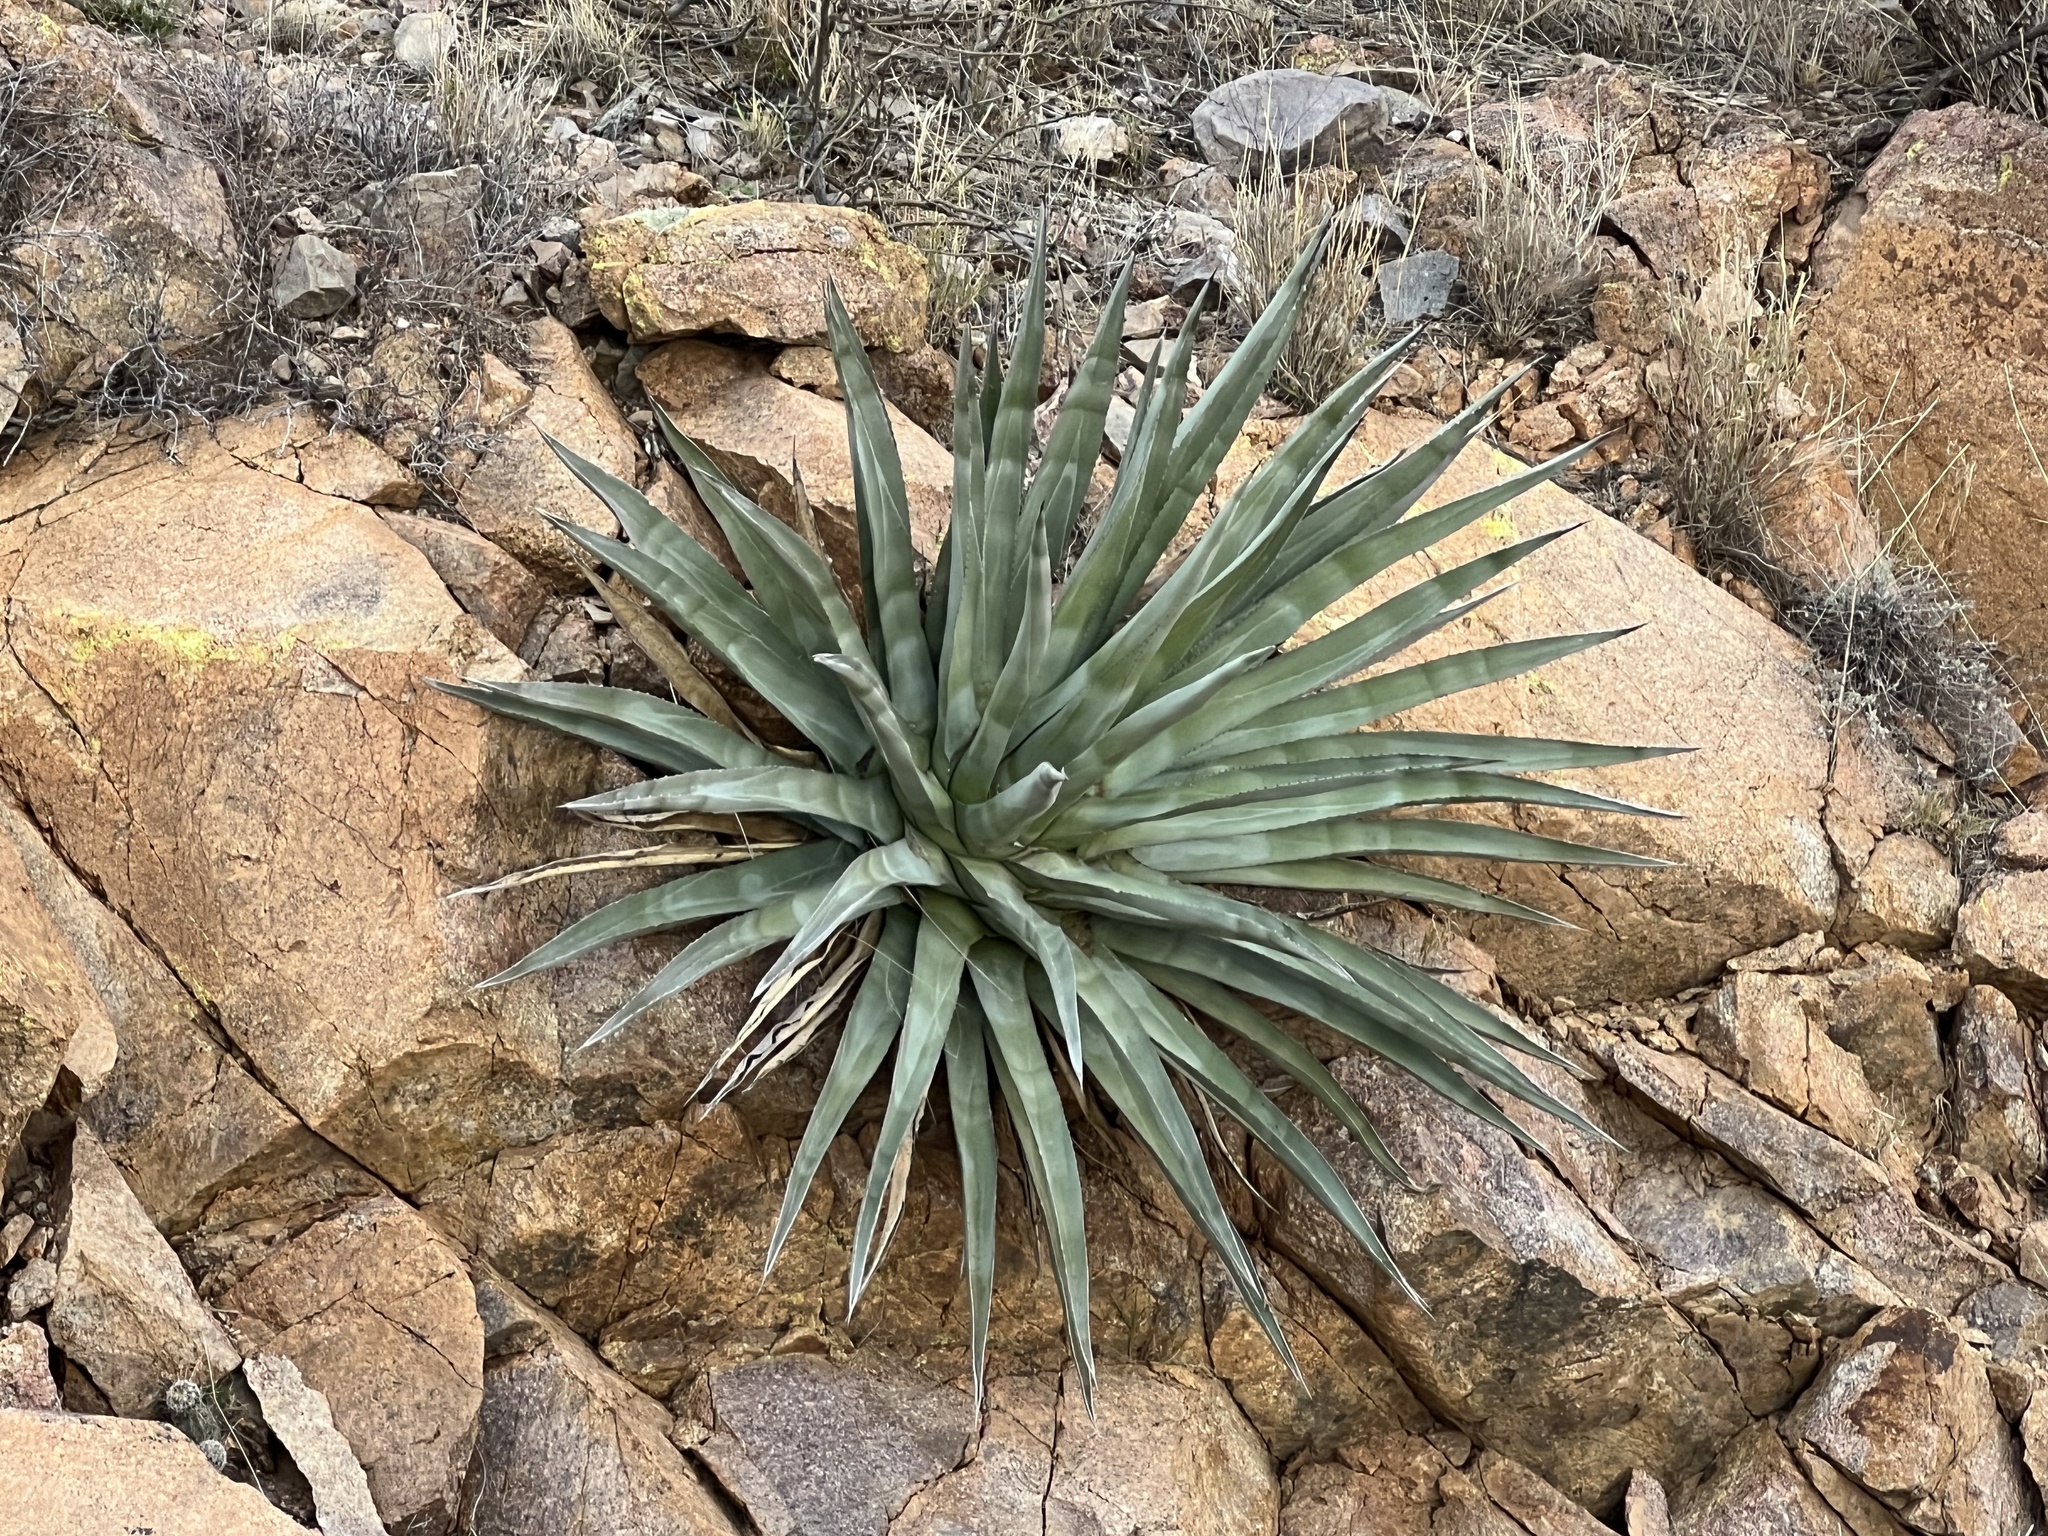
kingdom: Plantae
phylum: Tracheophyta
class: Liliopsida
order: Asparagales
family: Asparagaceae
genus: Agave
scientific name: Agave palmeri
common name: Palmer agave
